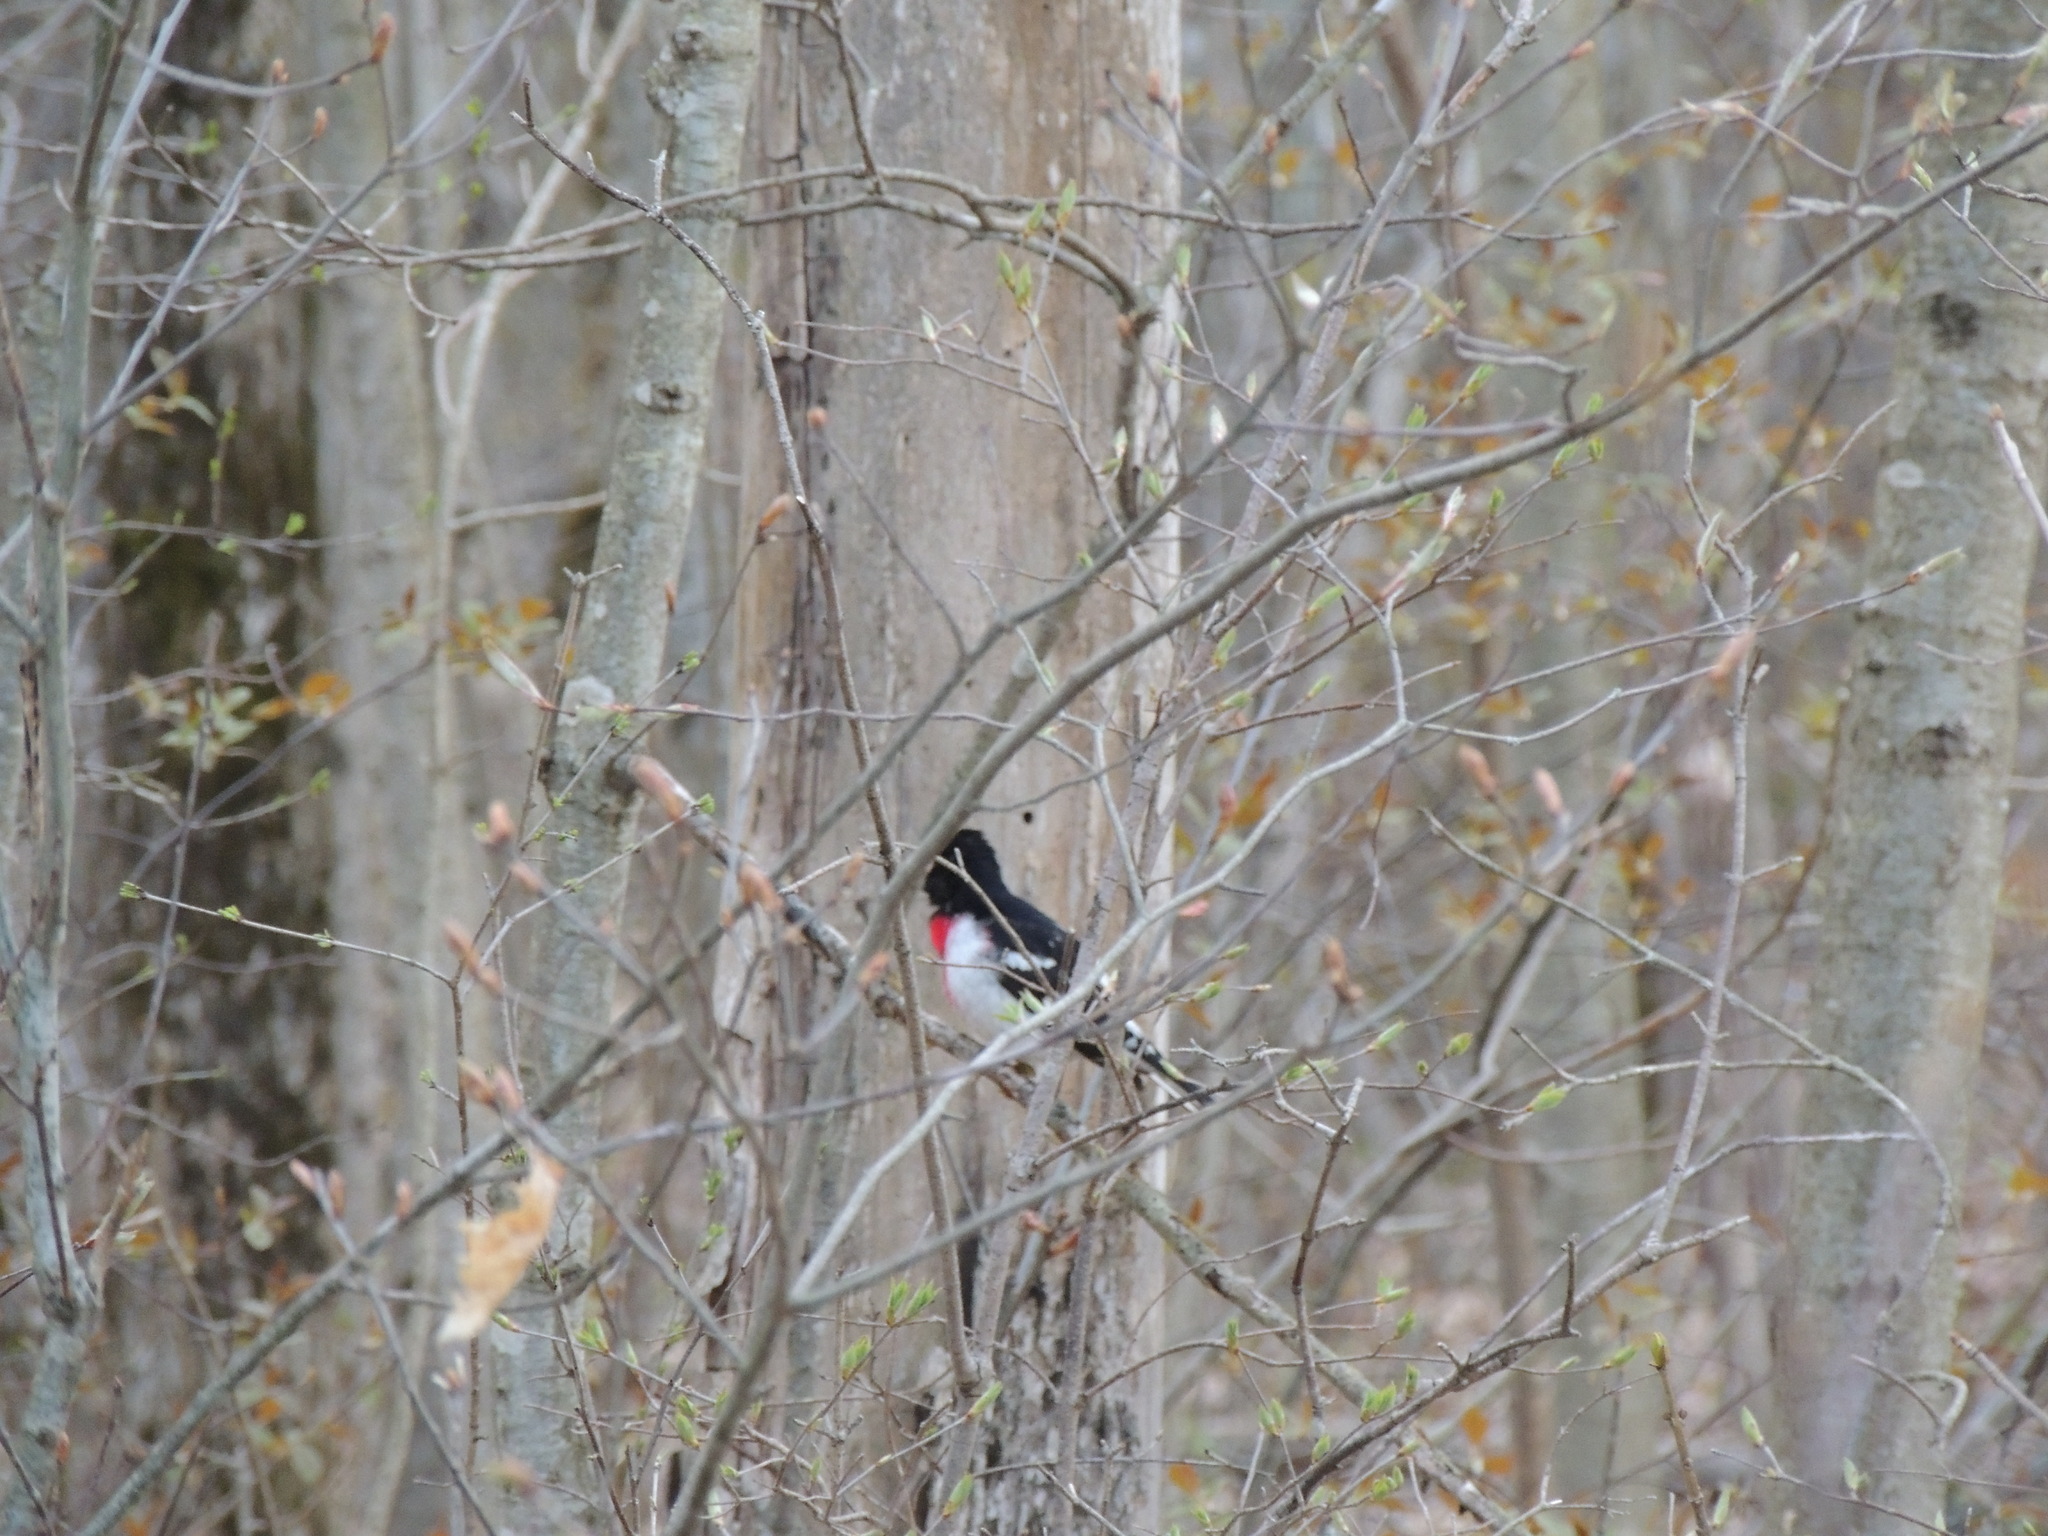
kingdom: Animalia
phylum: Chordata
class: Aves
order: Passeriformes
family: Cardinalidae
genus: Pheucticus
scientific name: Pheucticus ludovicianus
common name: Rose-breasted grosbeak
